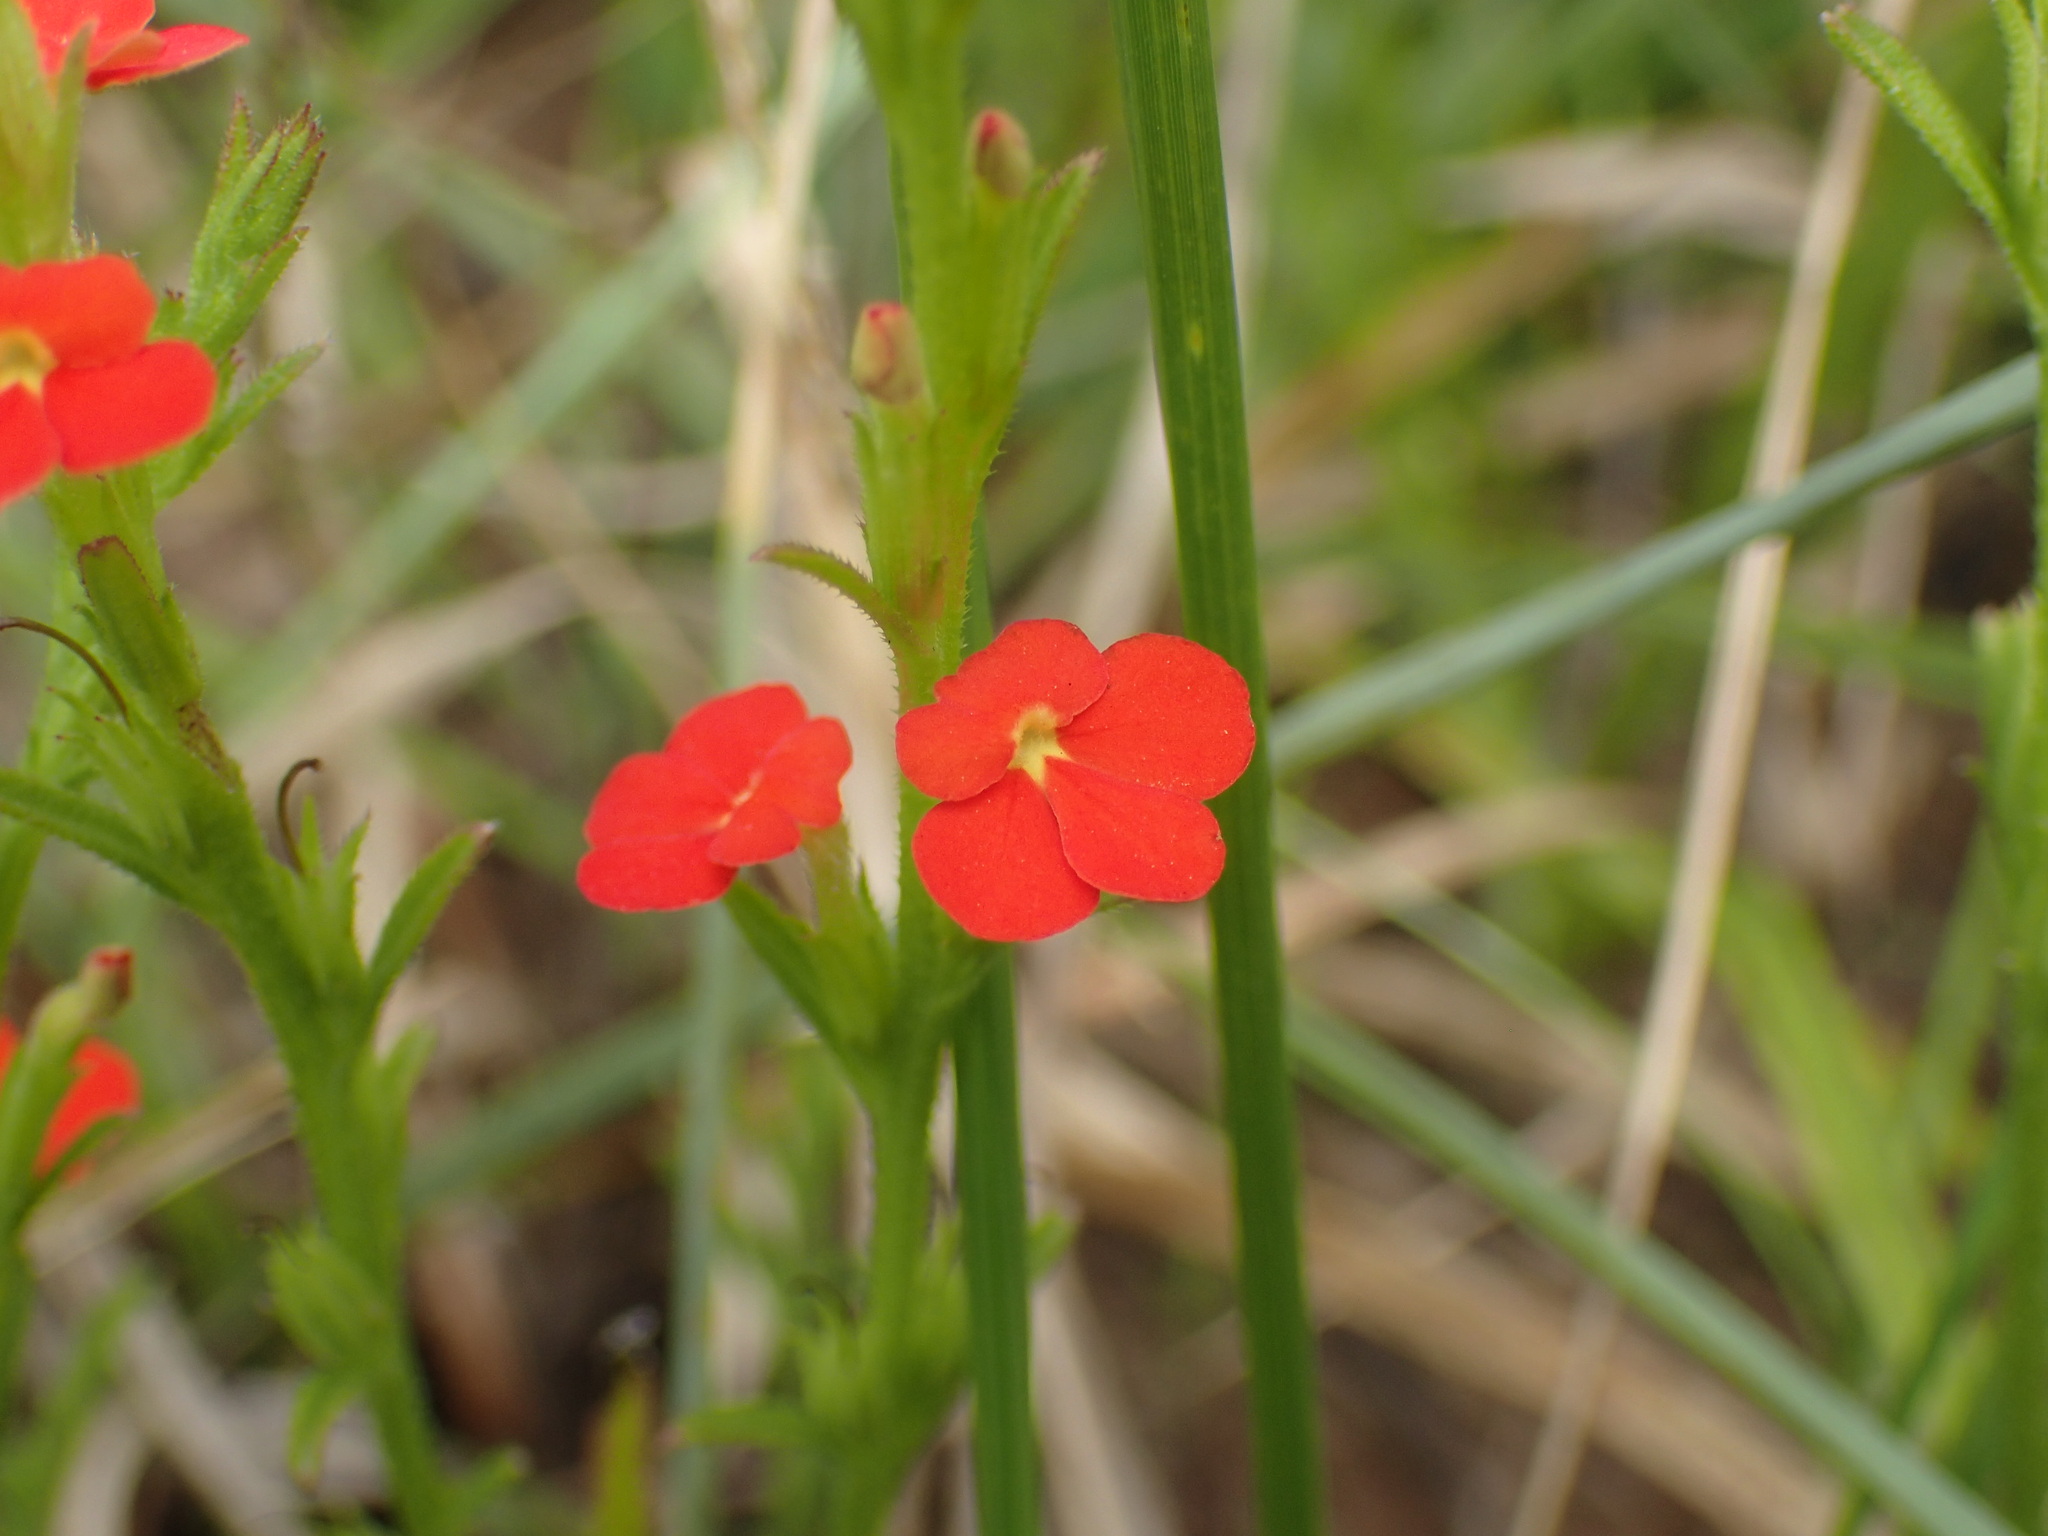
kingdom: Plantae
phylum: Tracheophyta
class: Magnoliopsida
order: Lamiales
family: Orobanchaceae
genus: Striga
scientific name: Striga asiatica
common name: Asiatic witchweed
